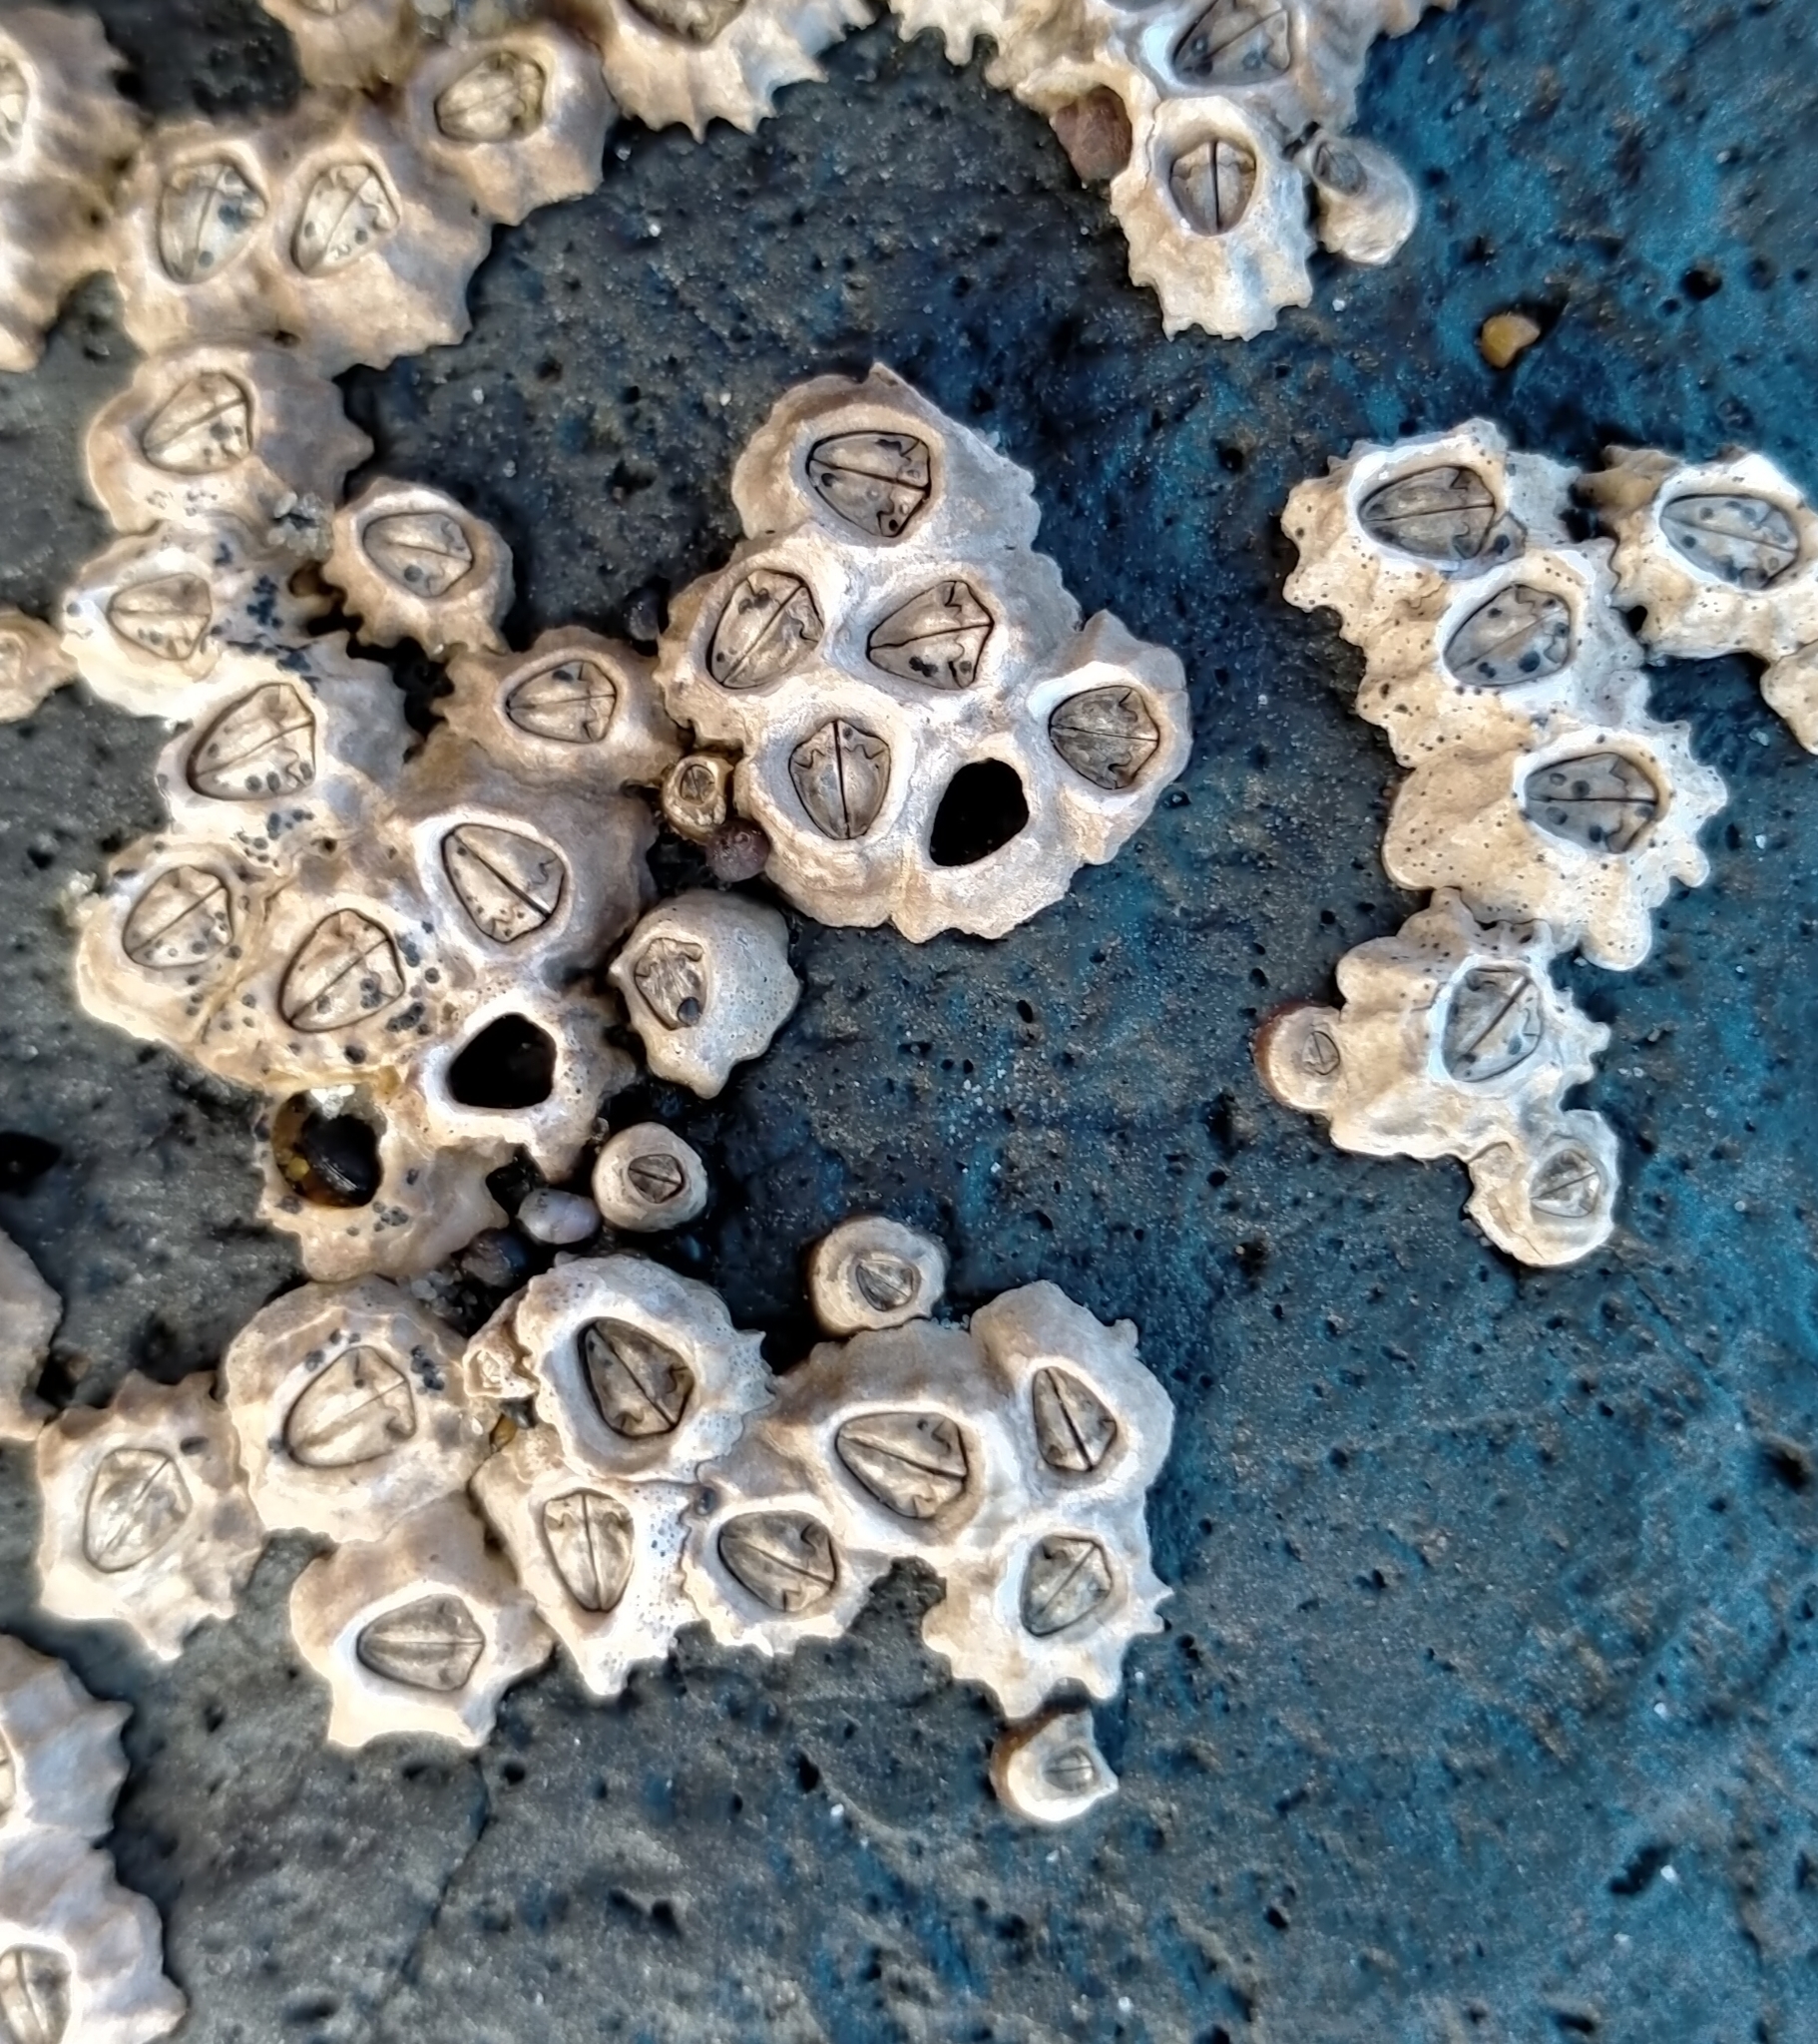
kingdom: Animalia
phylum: Arthropoda
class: Maxillopoda
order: Sessilia
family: Chthamalidae
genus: Chamaesipho
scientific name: Chamaesipho columna
